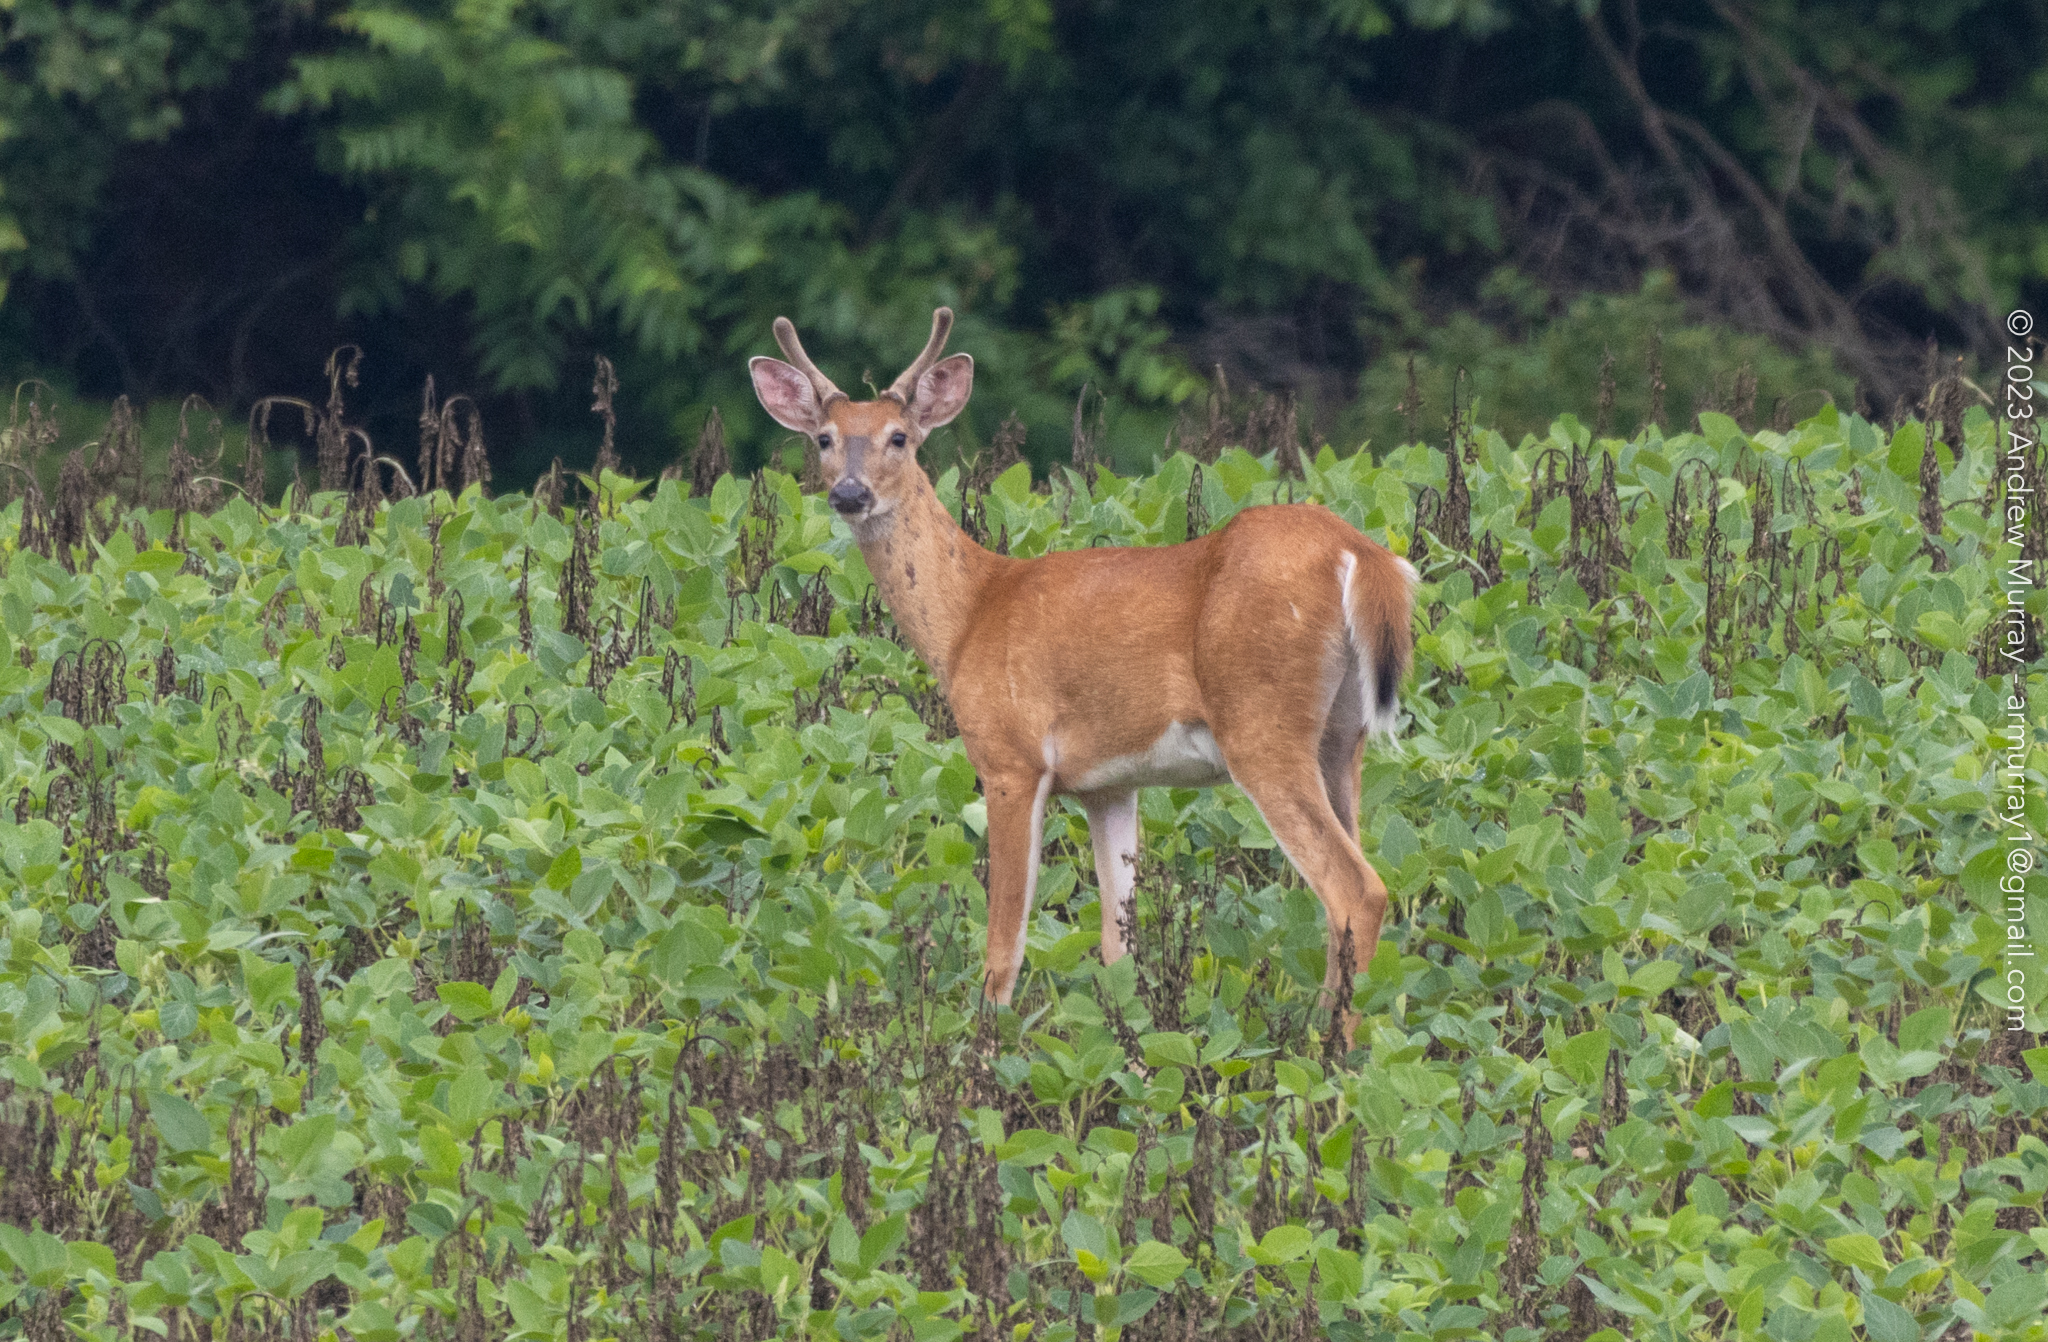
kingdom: Animalia
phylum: Chordata
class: Mammalia
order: Artiodactyla
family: Cervidae
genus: Odocoileus
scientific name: Odocoileus virginianus
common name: White-tailed deer
